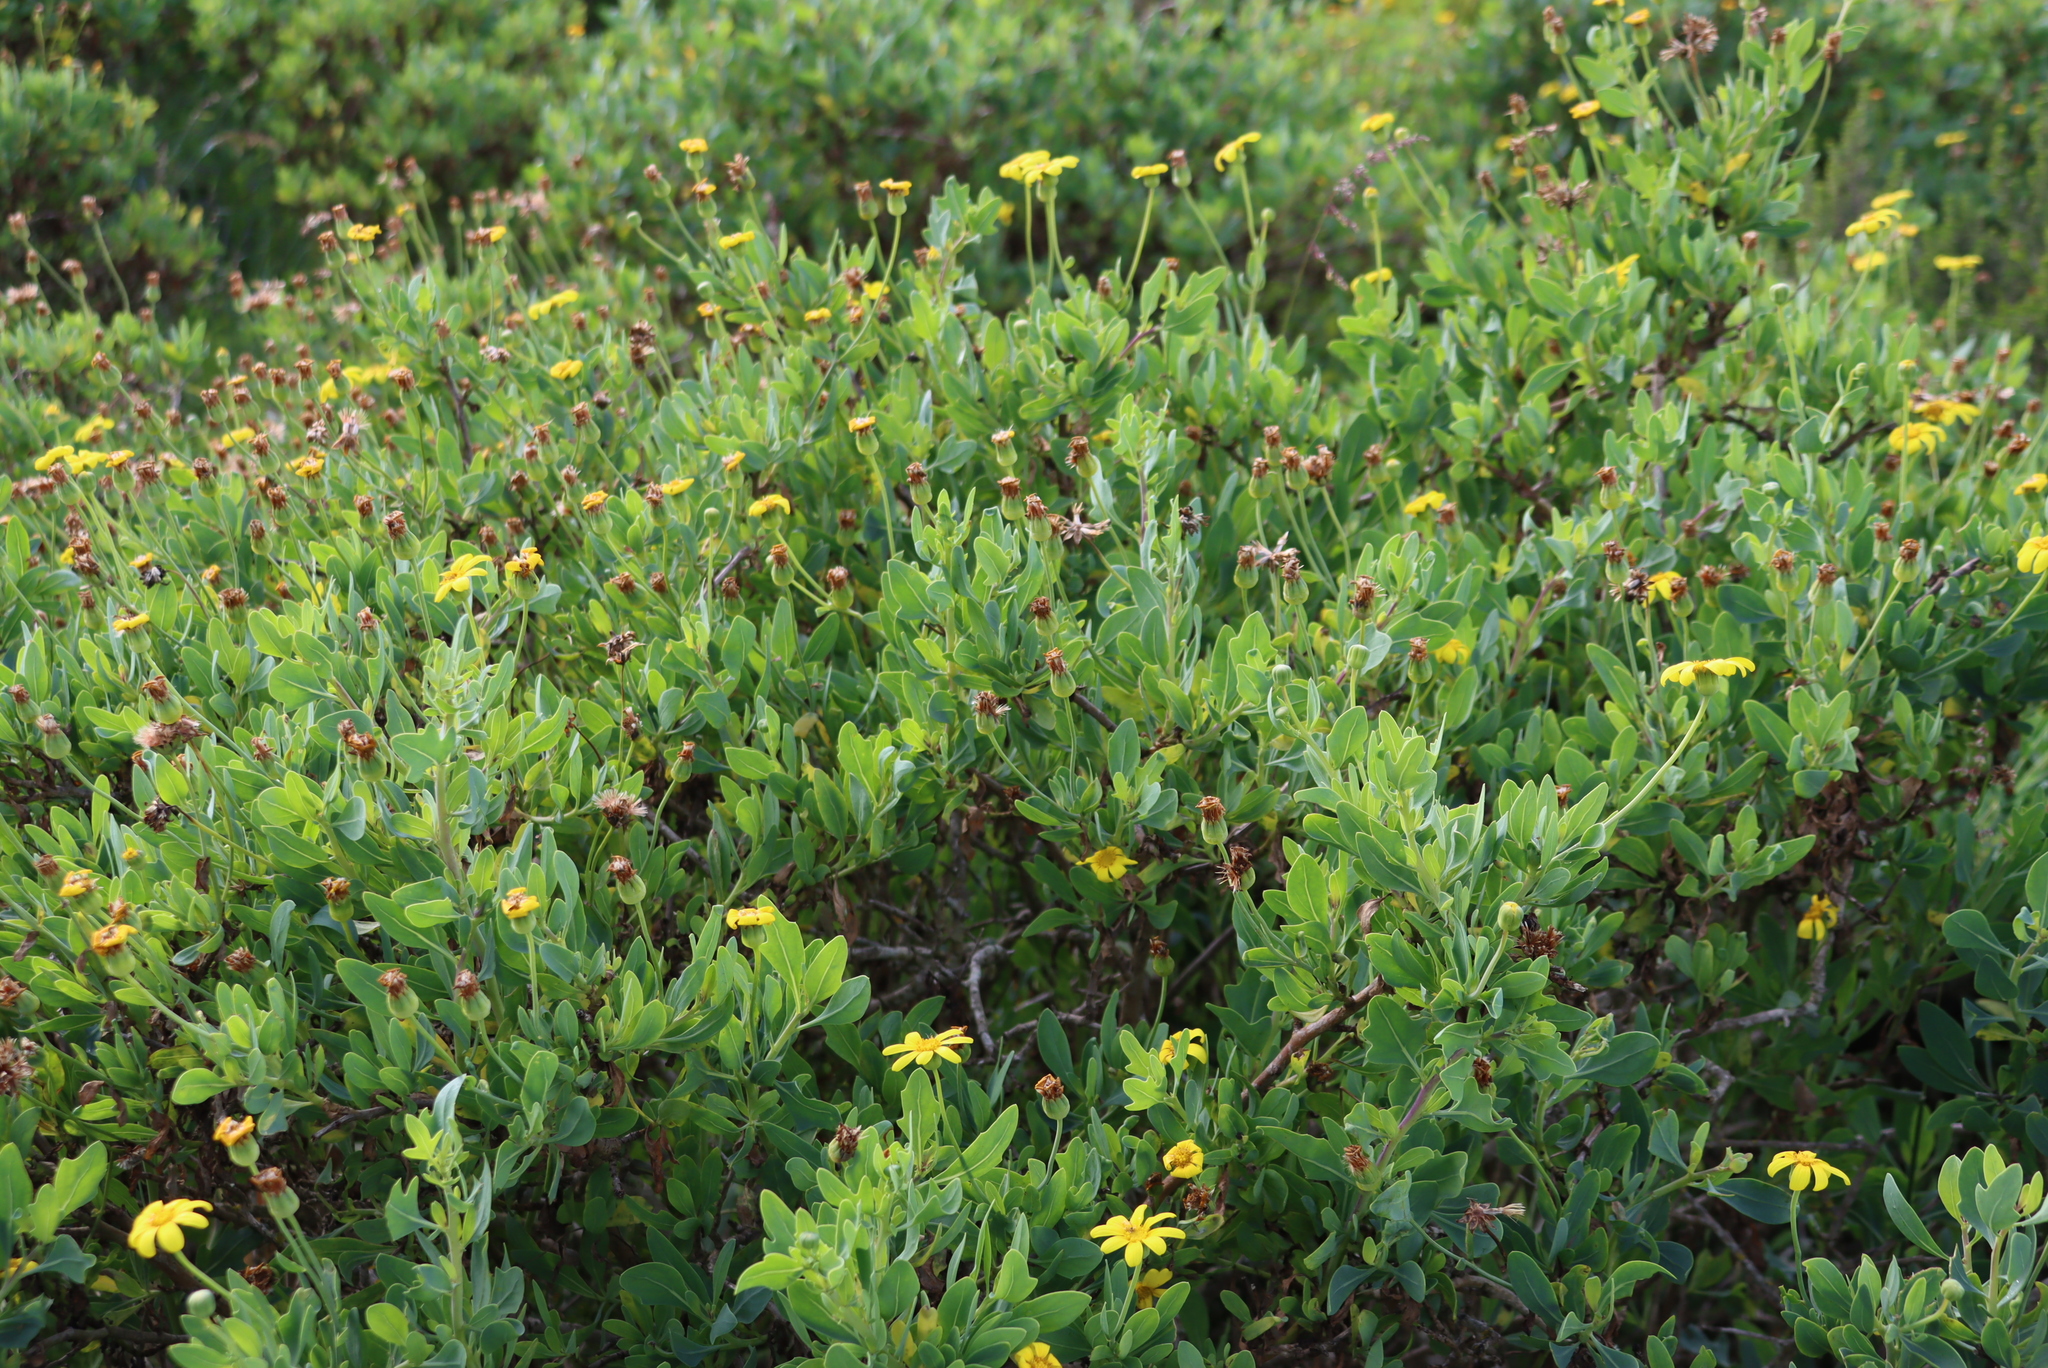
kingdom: Plantae
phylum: Tracheophyta
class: Magnoliopsida
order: Asterales
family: Asteraceae
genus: Othonna
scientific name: Othonna coronopifolia
